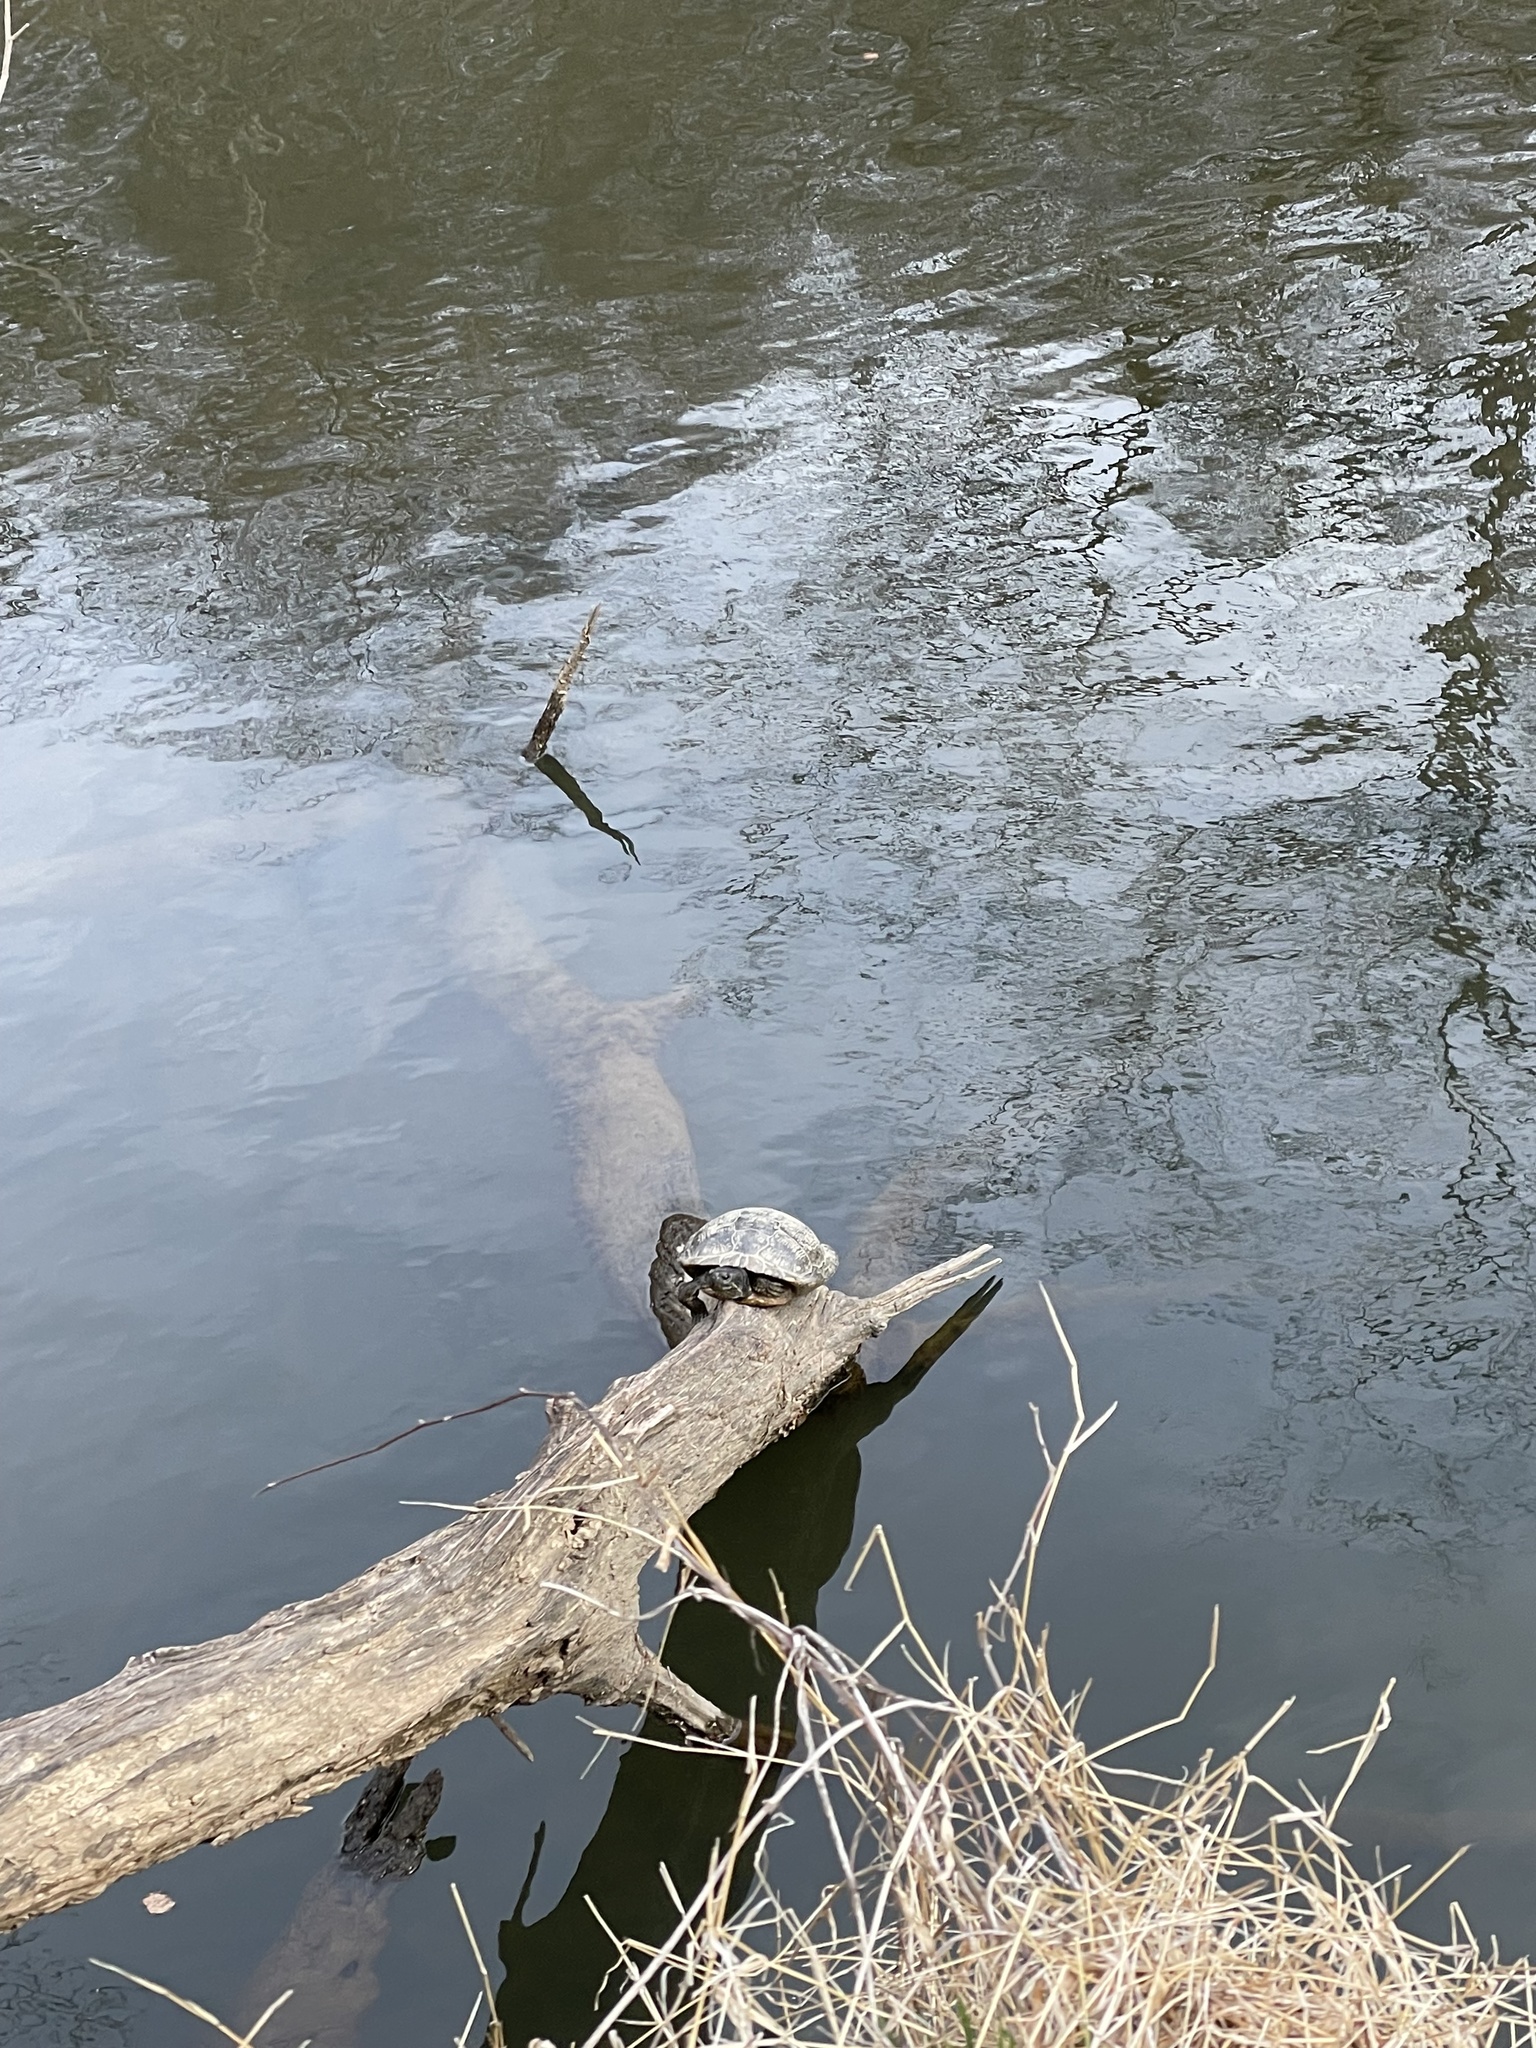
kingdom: Animalia
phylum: Chordata
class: Testudines
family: Emydidae
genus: Trachemys
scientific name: Trachemys scripta
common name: Slider
